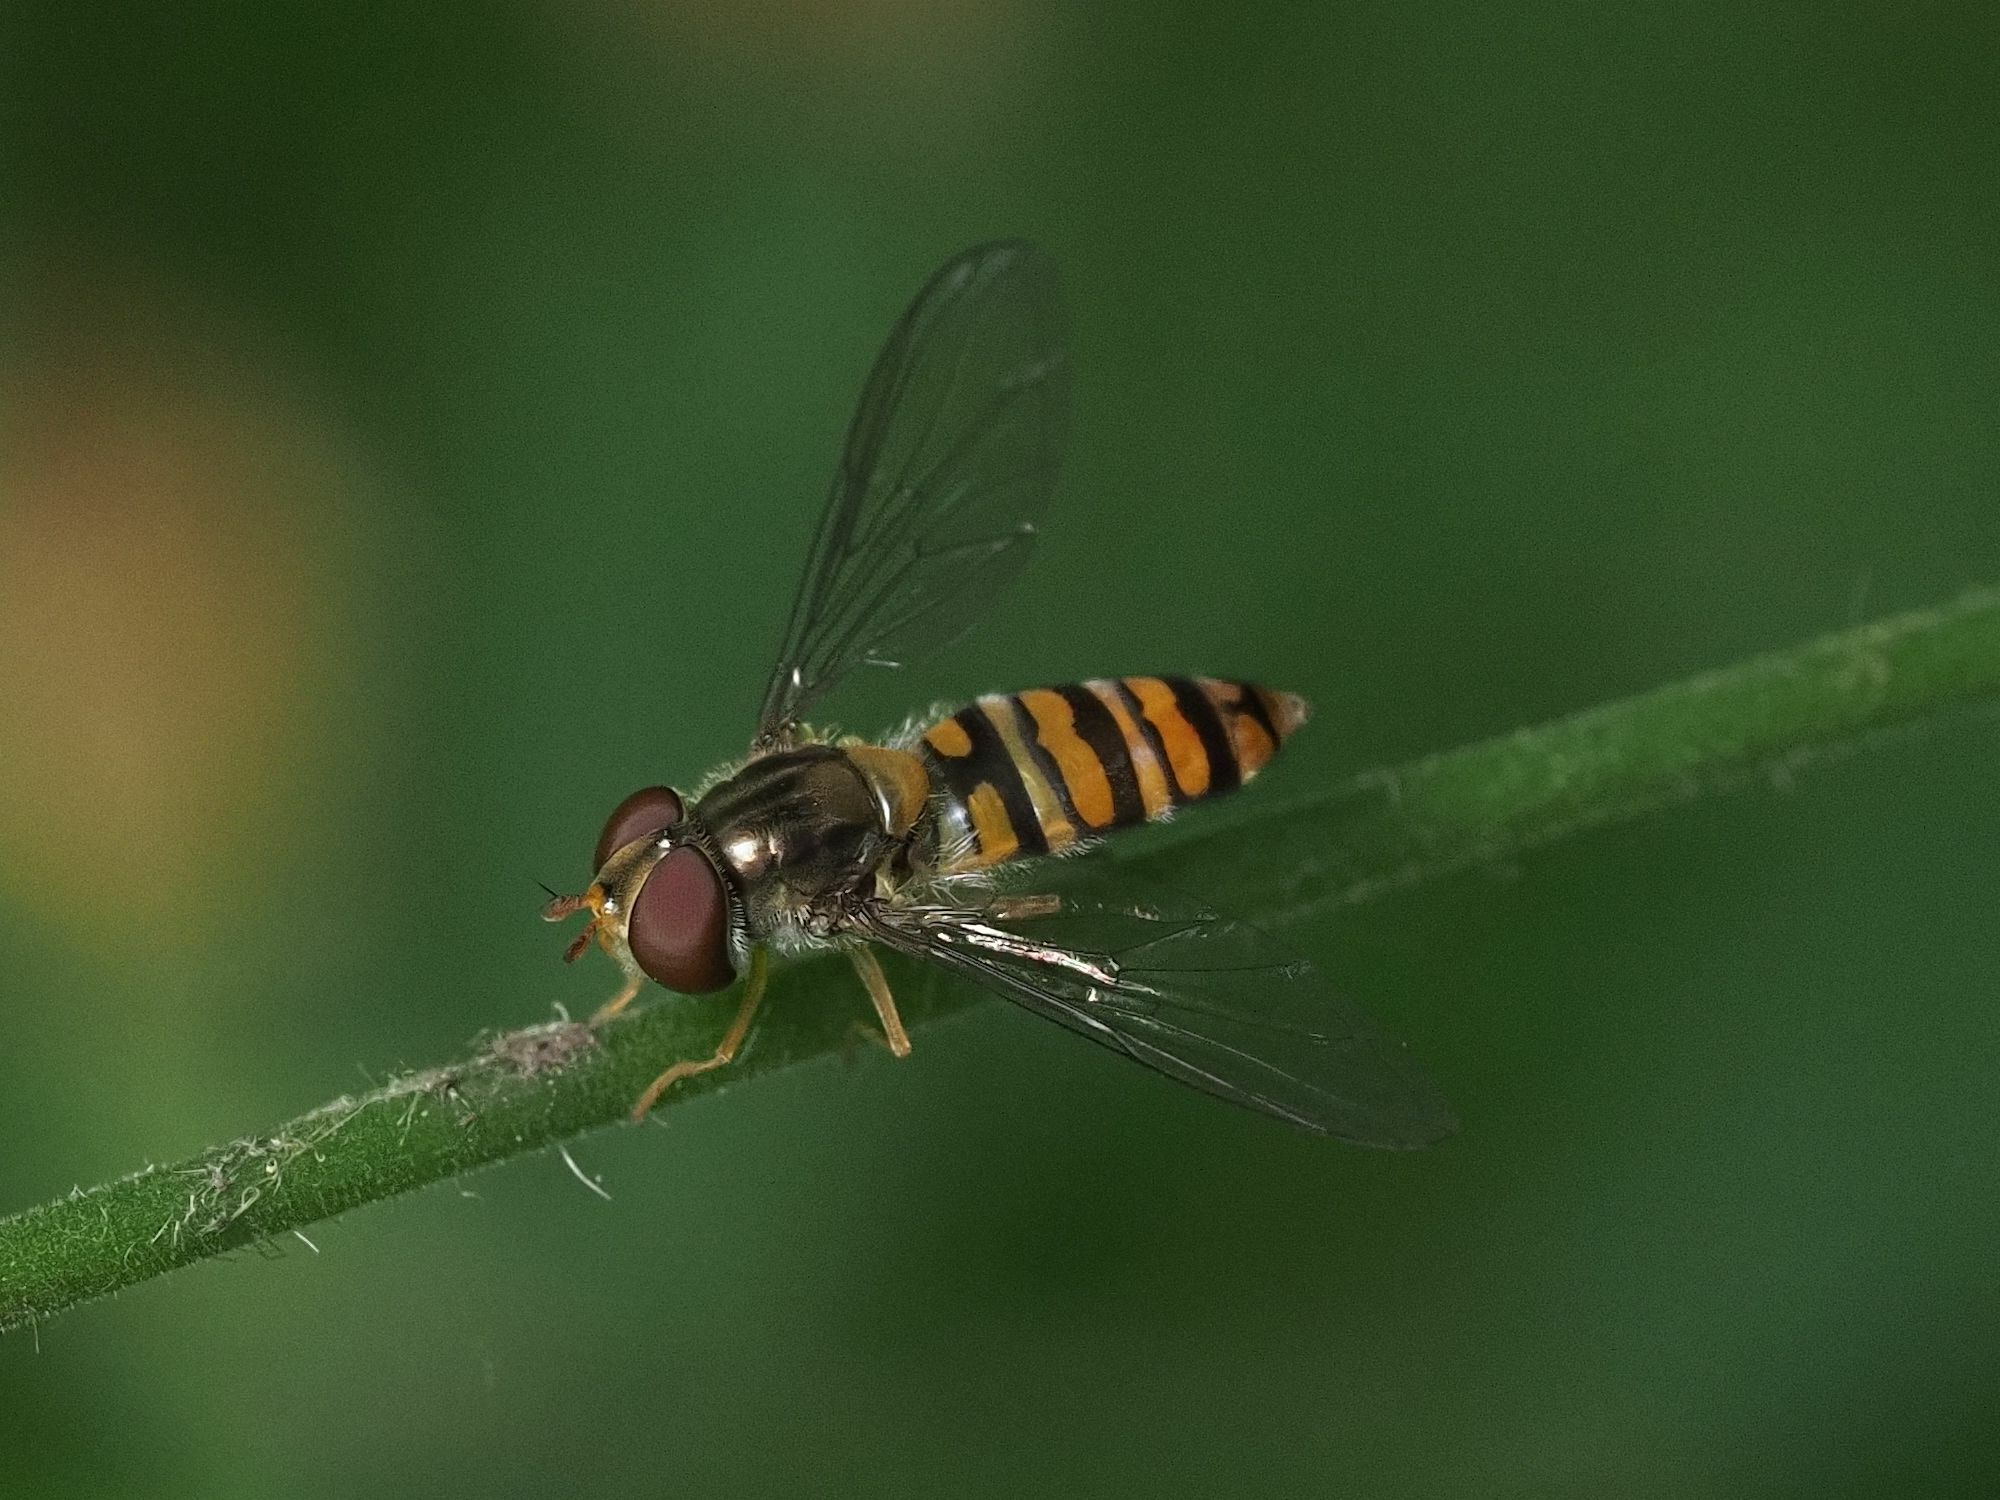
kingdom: Animalia
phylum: Arthropoda
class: Insecta
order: Diptera
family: Syrphidae
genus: Episyrphus
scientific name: Episyrphus balteatus
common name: Marmalade hoverfly
